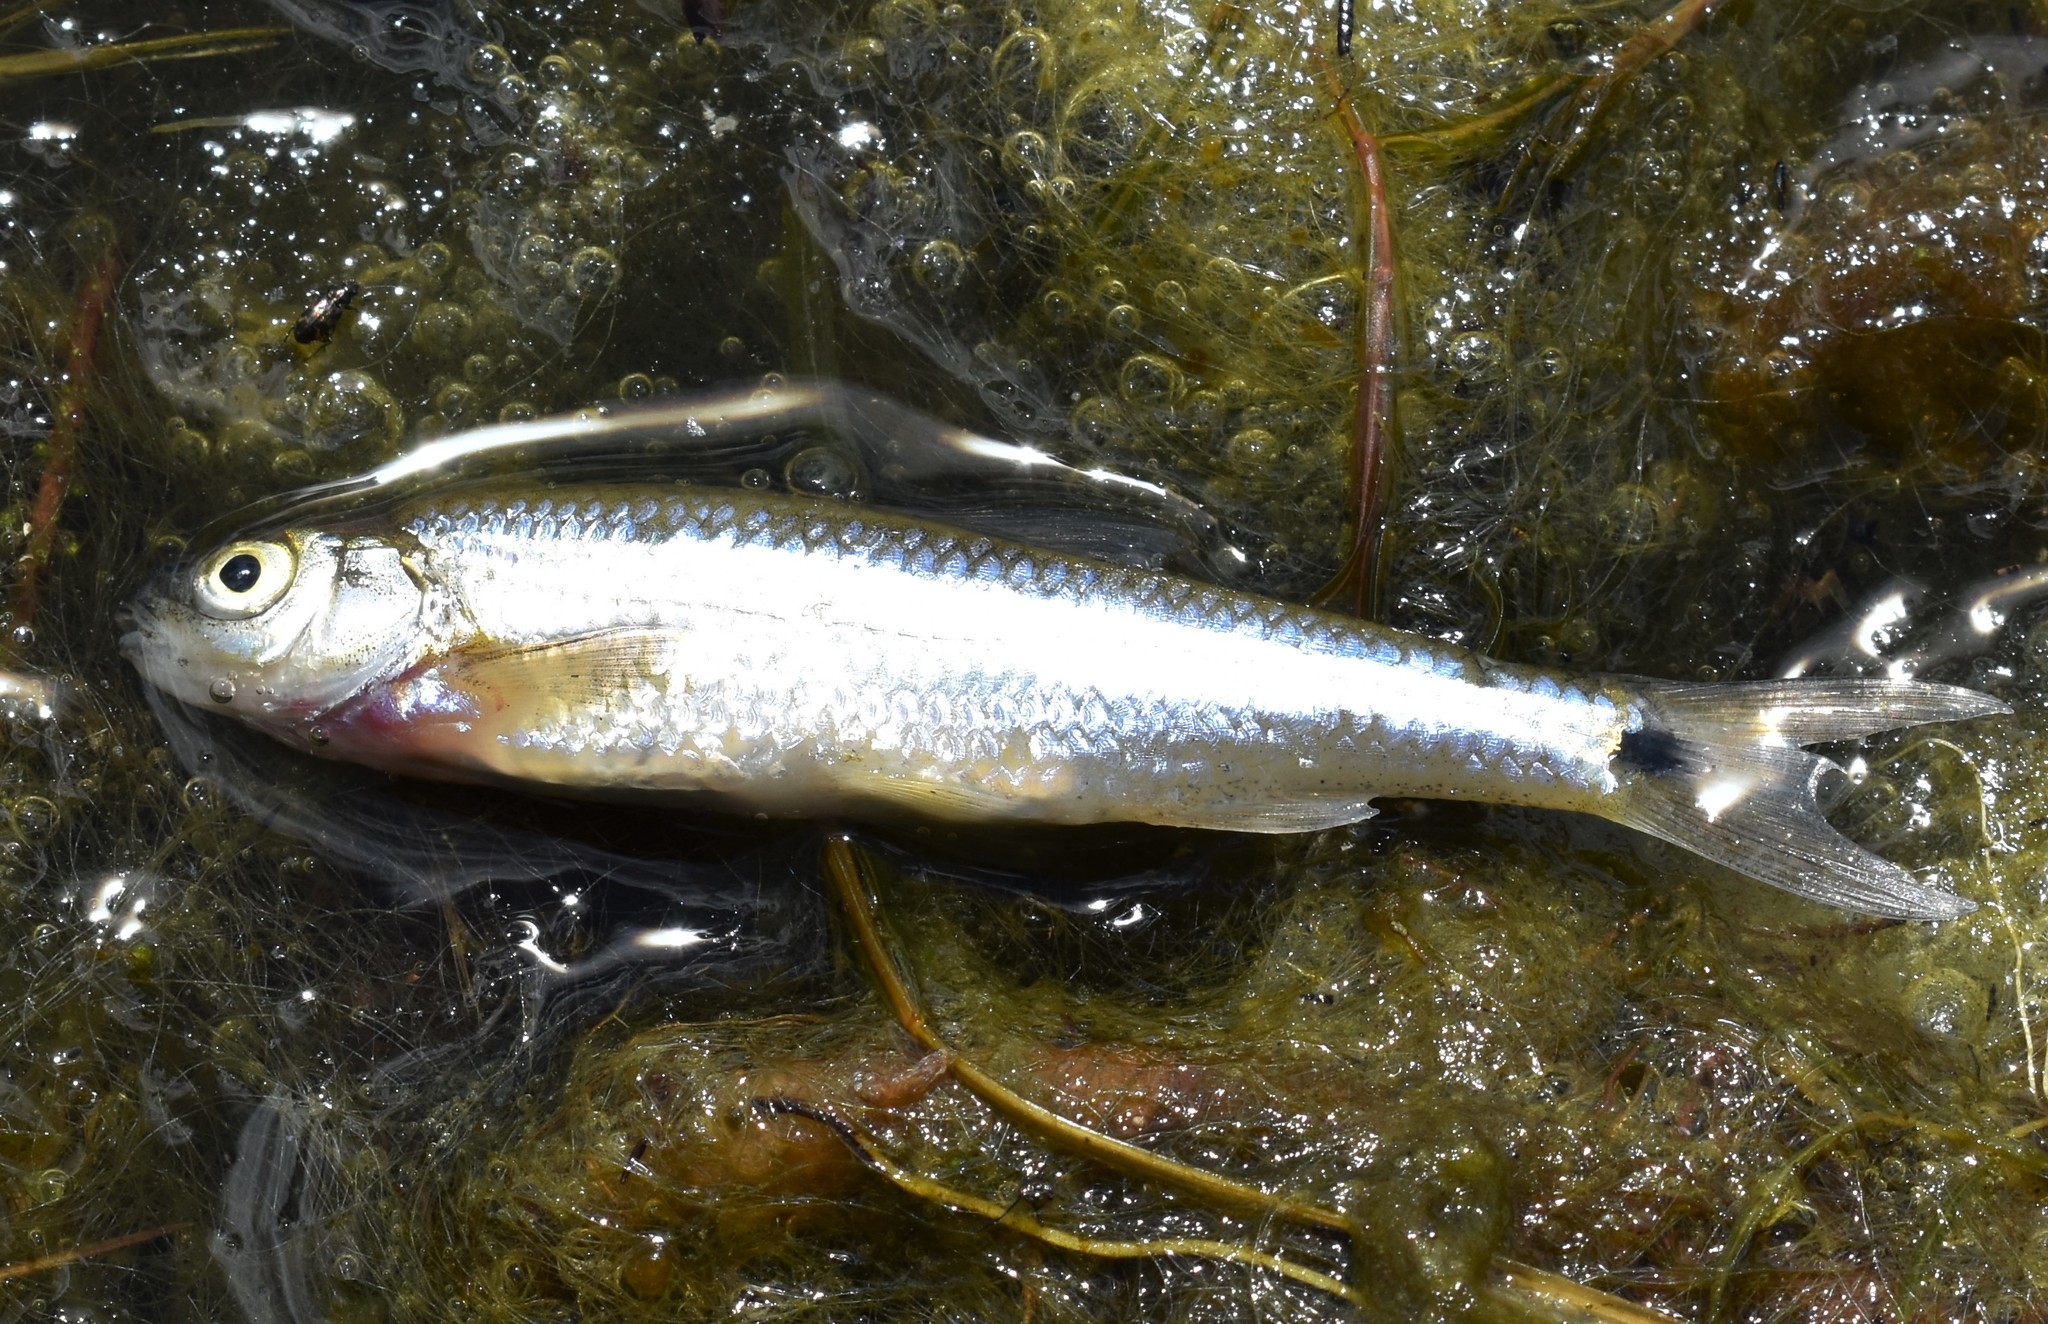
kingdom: Animalia
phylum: Chordata
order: Cypriniformes
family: Cyprinidae
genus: Notropis
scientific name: Notropis
